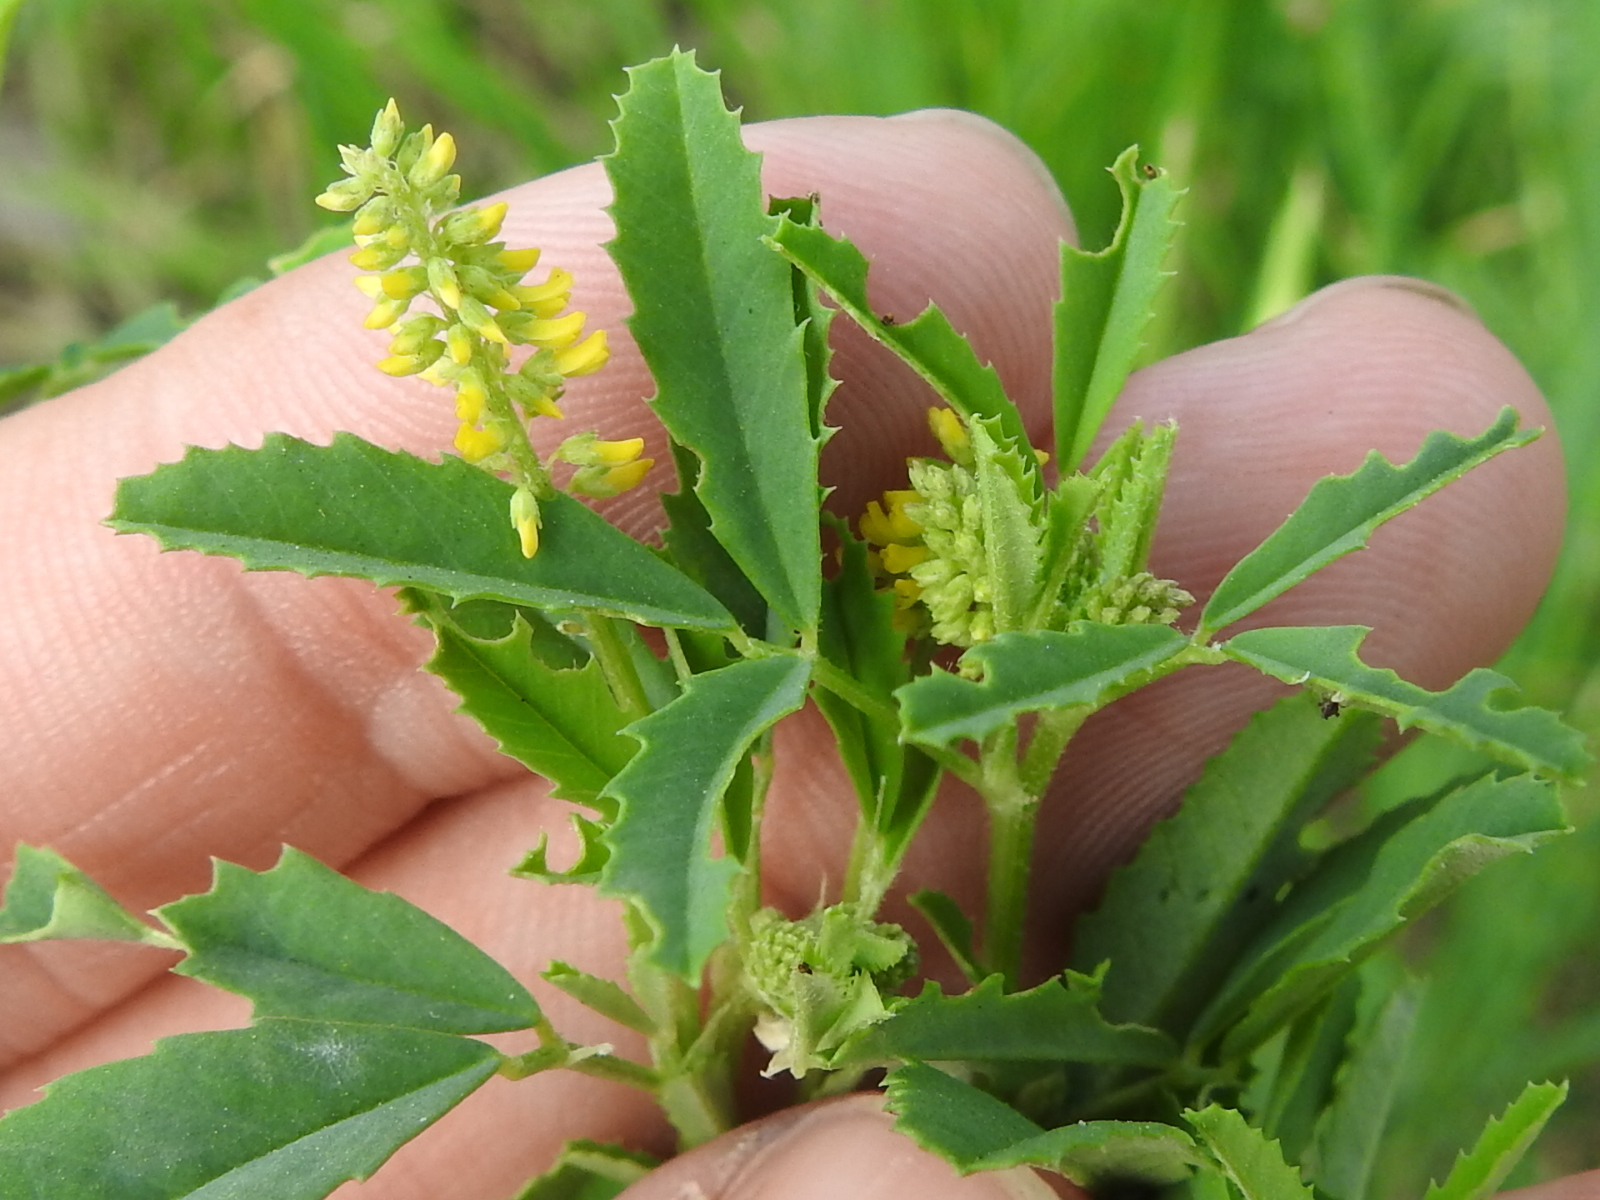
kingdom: Plantae
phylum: Tracheophyta
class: Magnoliopsida
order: Fabales
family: Fabaceae
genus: Melilotus
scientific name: Melilotus indicus
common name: Small melilot
